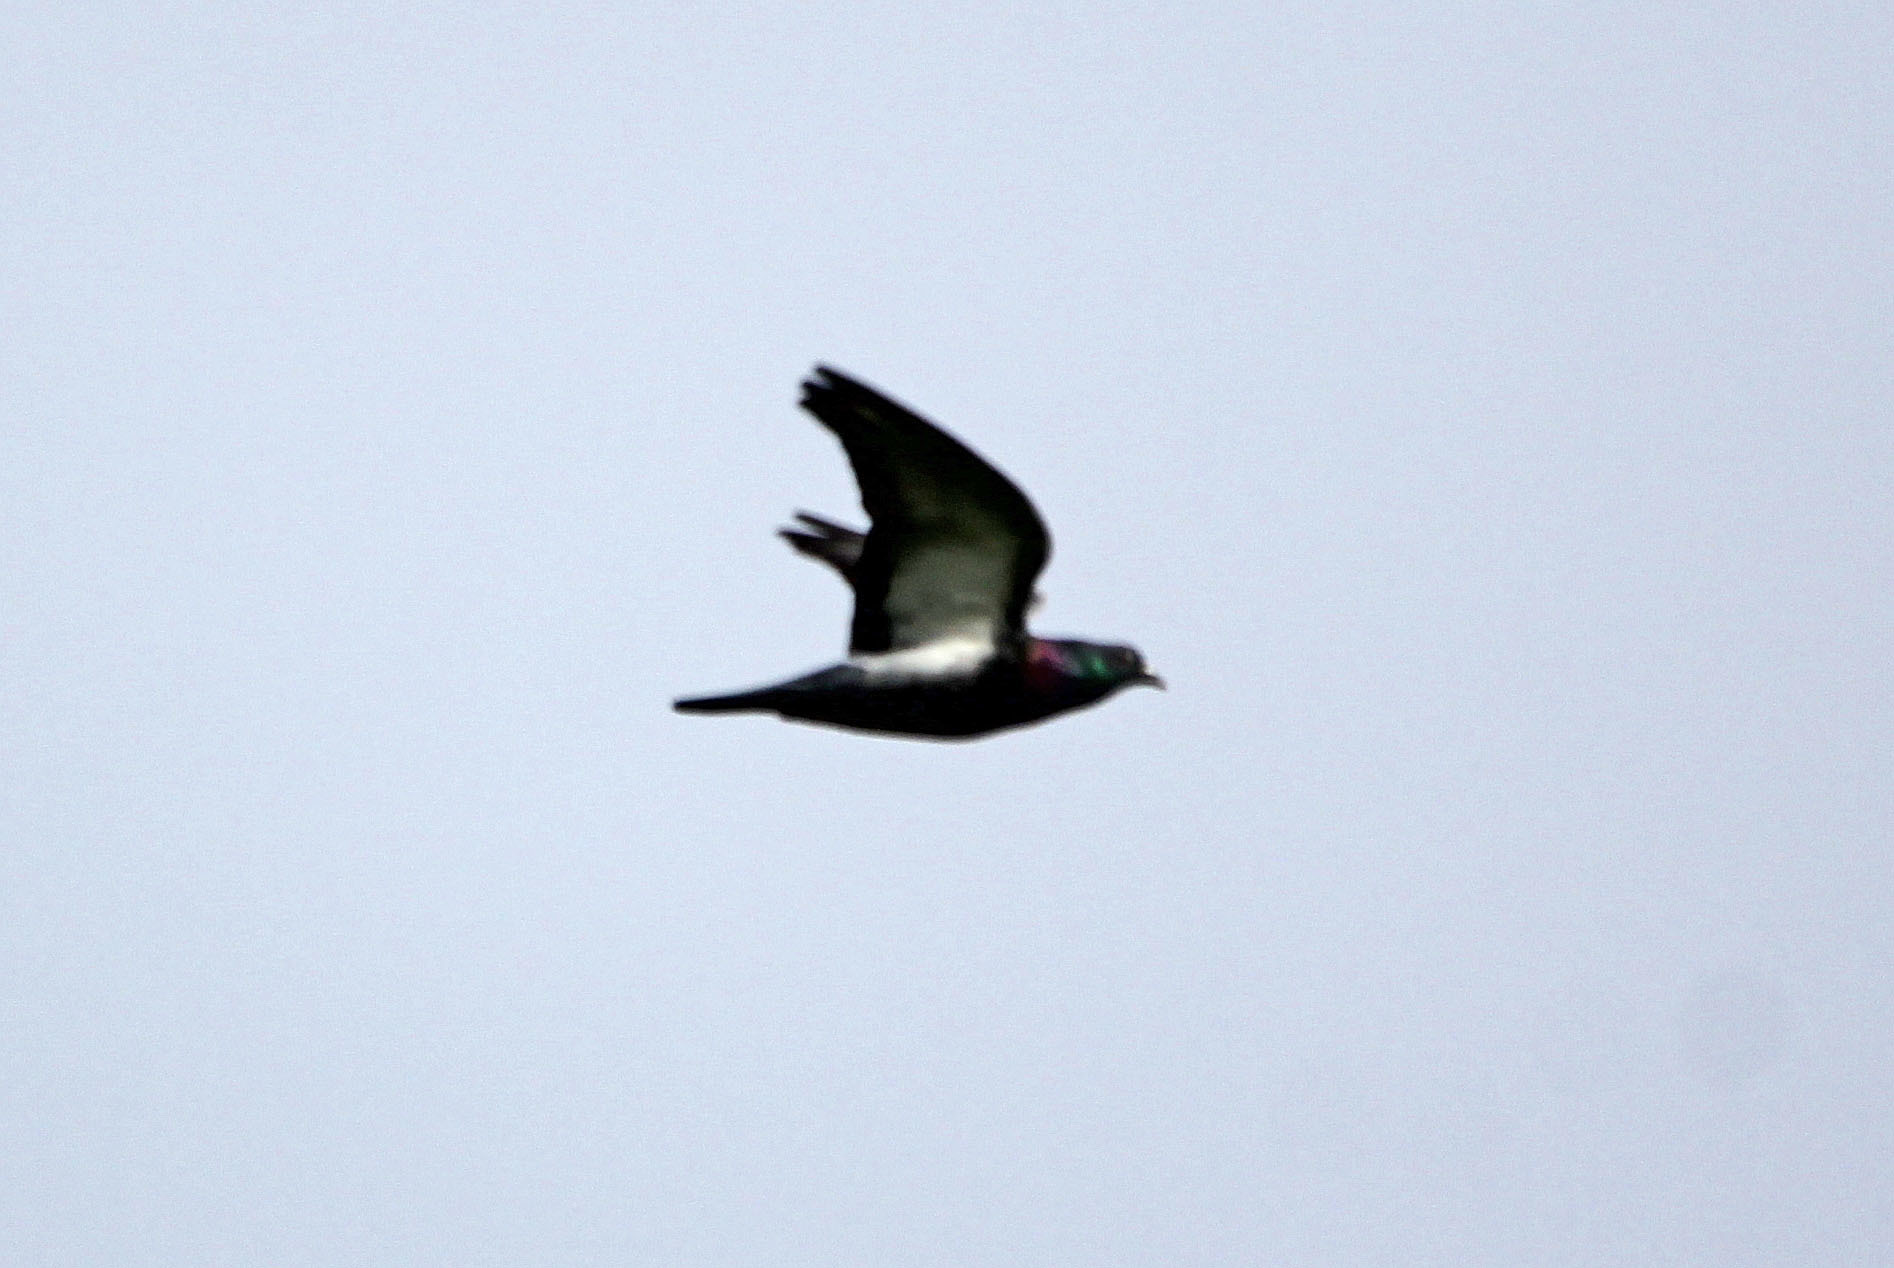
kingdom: Animalia
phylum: Chordata
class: Aves
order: Columbiformes
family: Columbidae
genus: Columba
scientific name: Columba livia
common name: Rock pigeon
